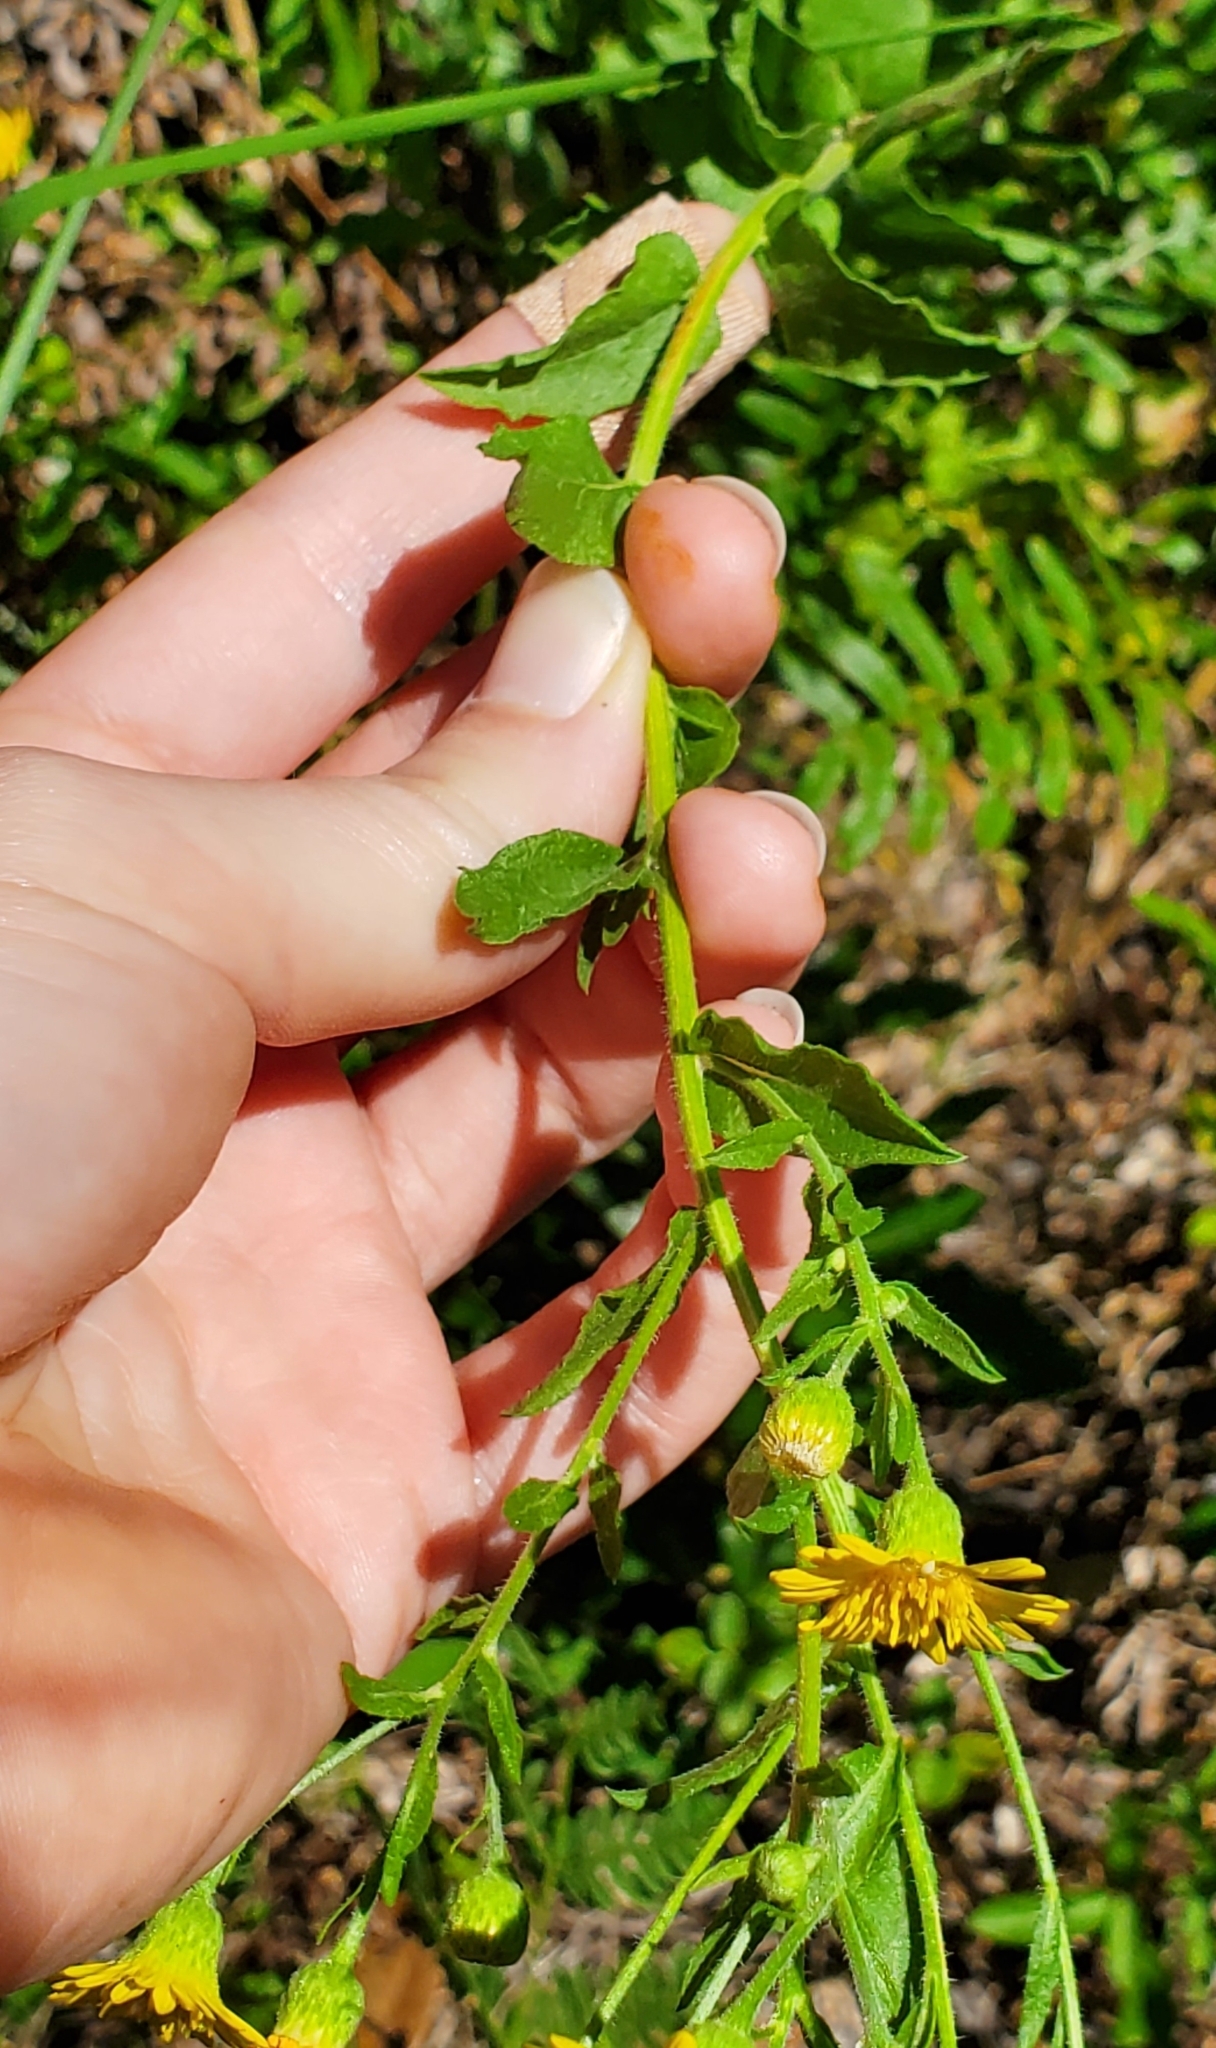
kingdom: Plantae
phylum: Tracheophyta
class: Magnoliopsida
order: Asterales
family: Asteraceae
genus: Heterotheca
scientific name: Heterotheca subaxillaris
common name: Camphorweed
